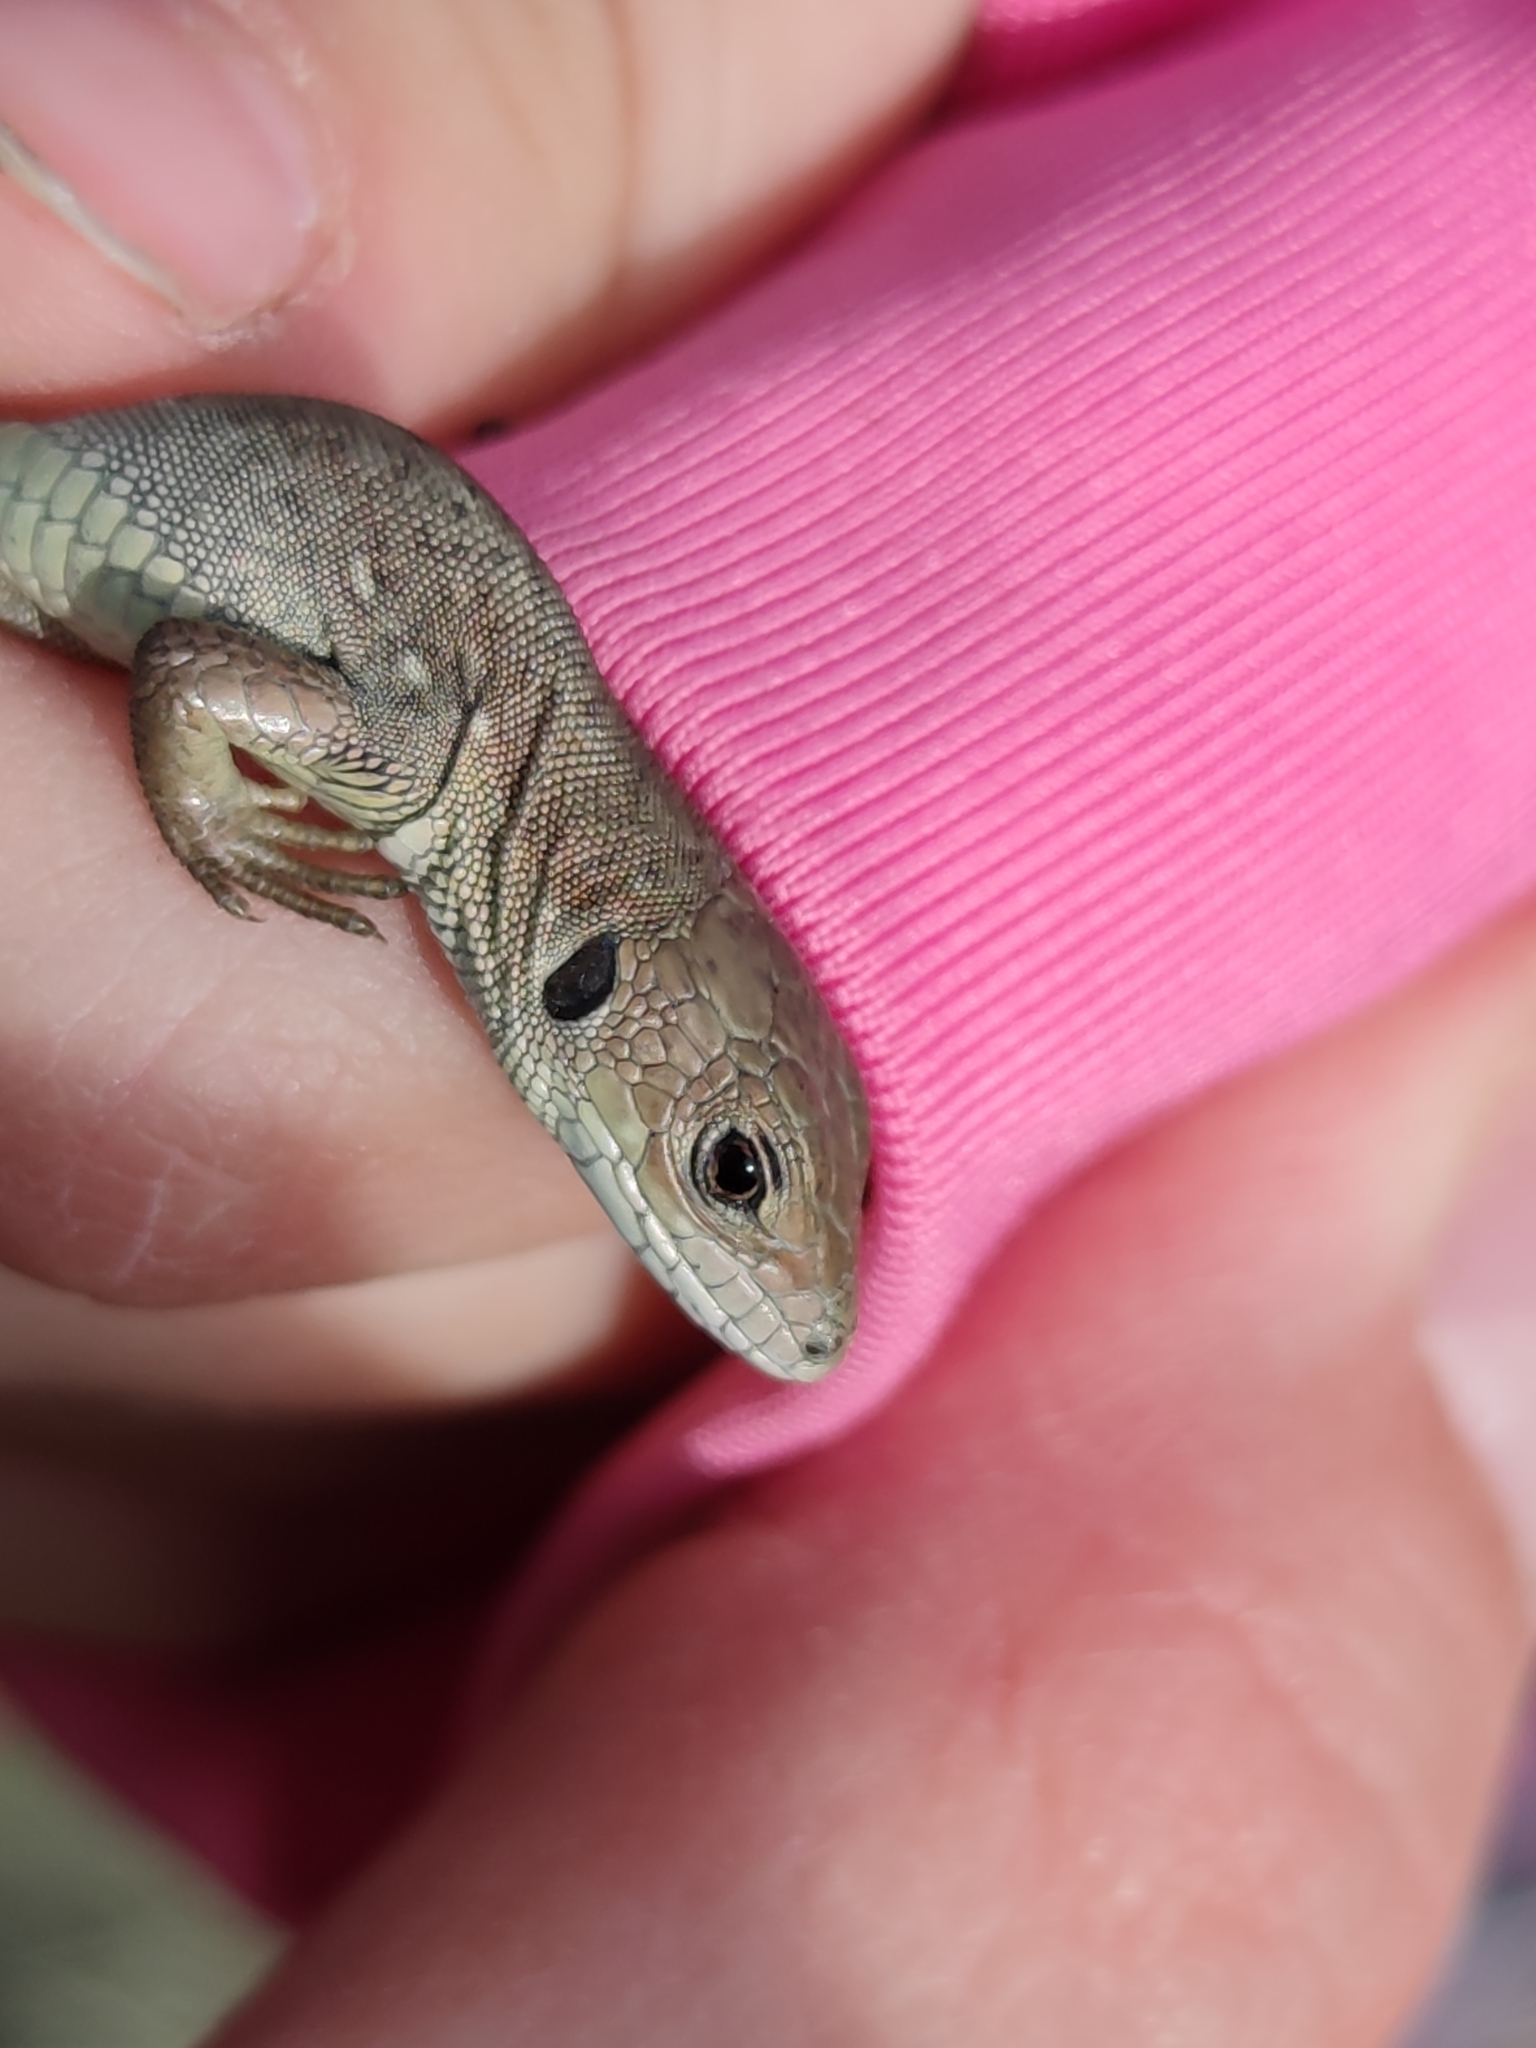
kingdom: Animalia
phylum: Chordata
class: Squamata
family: Lacertidae
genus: Lacerta
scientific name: Lacerta agilis
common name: Sand lizard
